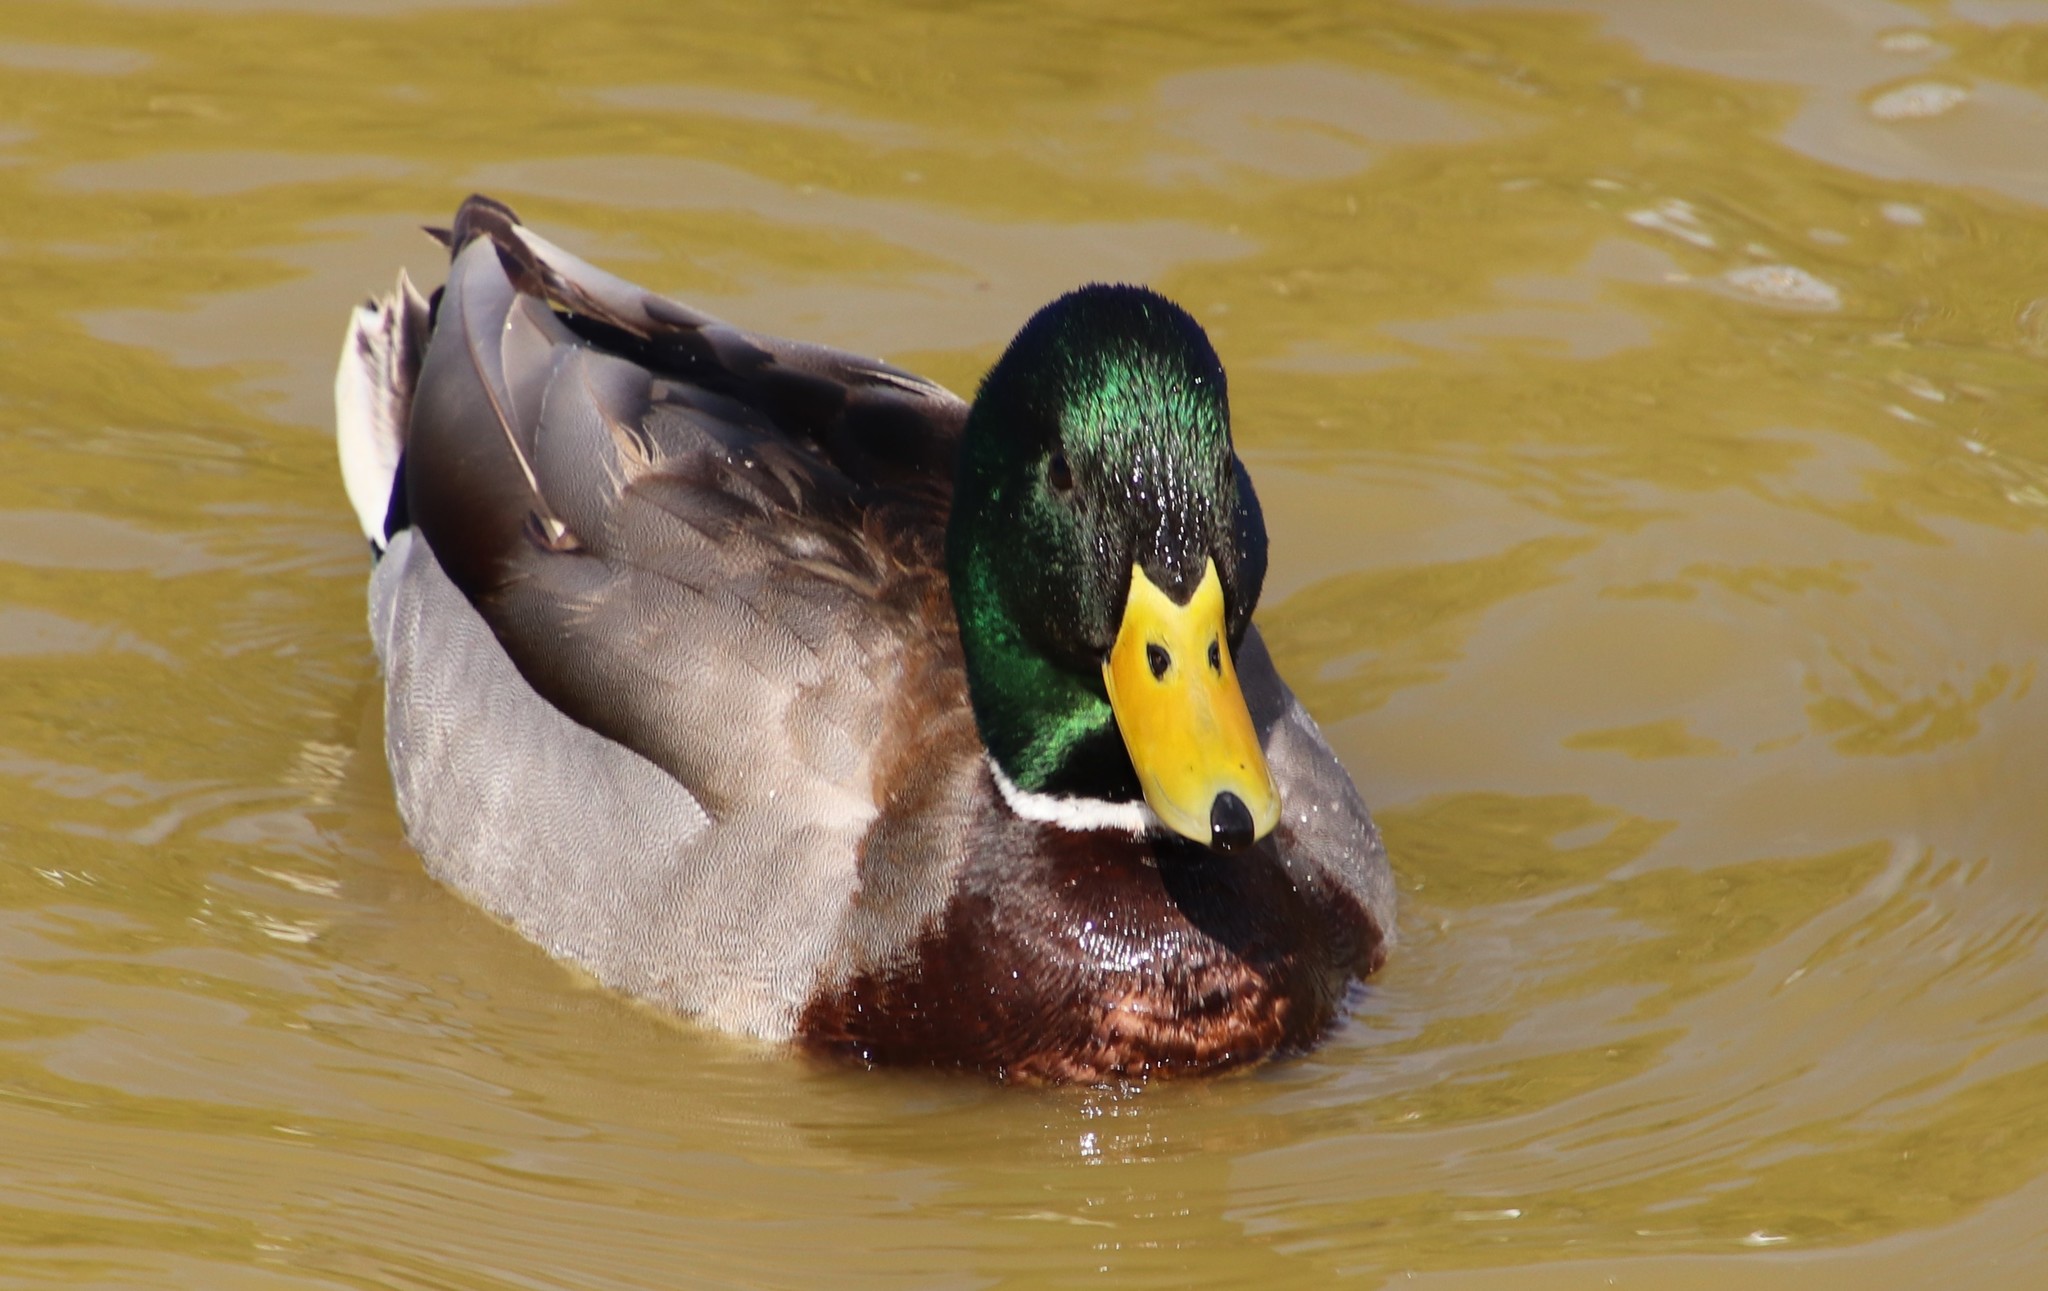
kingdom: Animalia
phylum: Chordata
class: Aves
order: Anseriformes
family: Anatidae
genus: Anas
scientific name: Anas platyrhynchos
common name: Mallard
